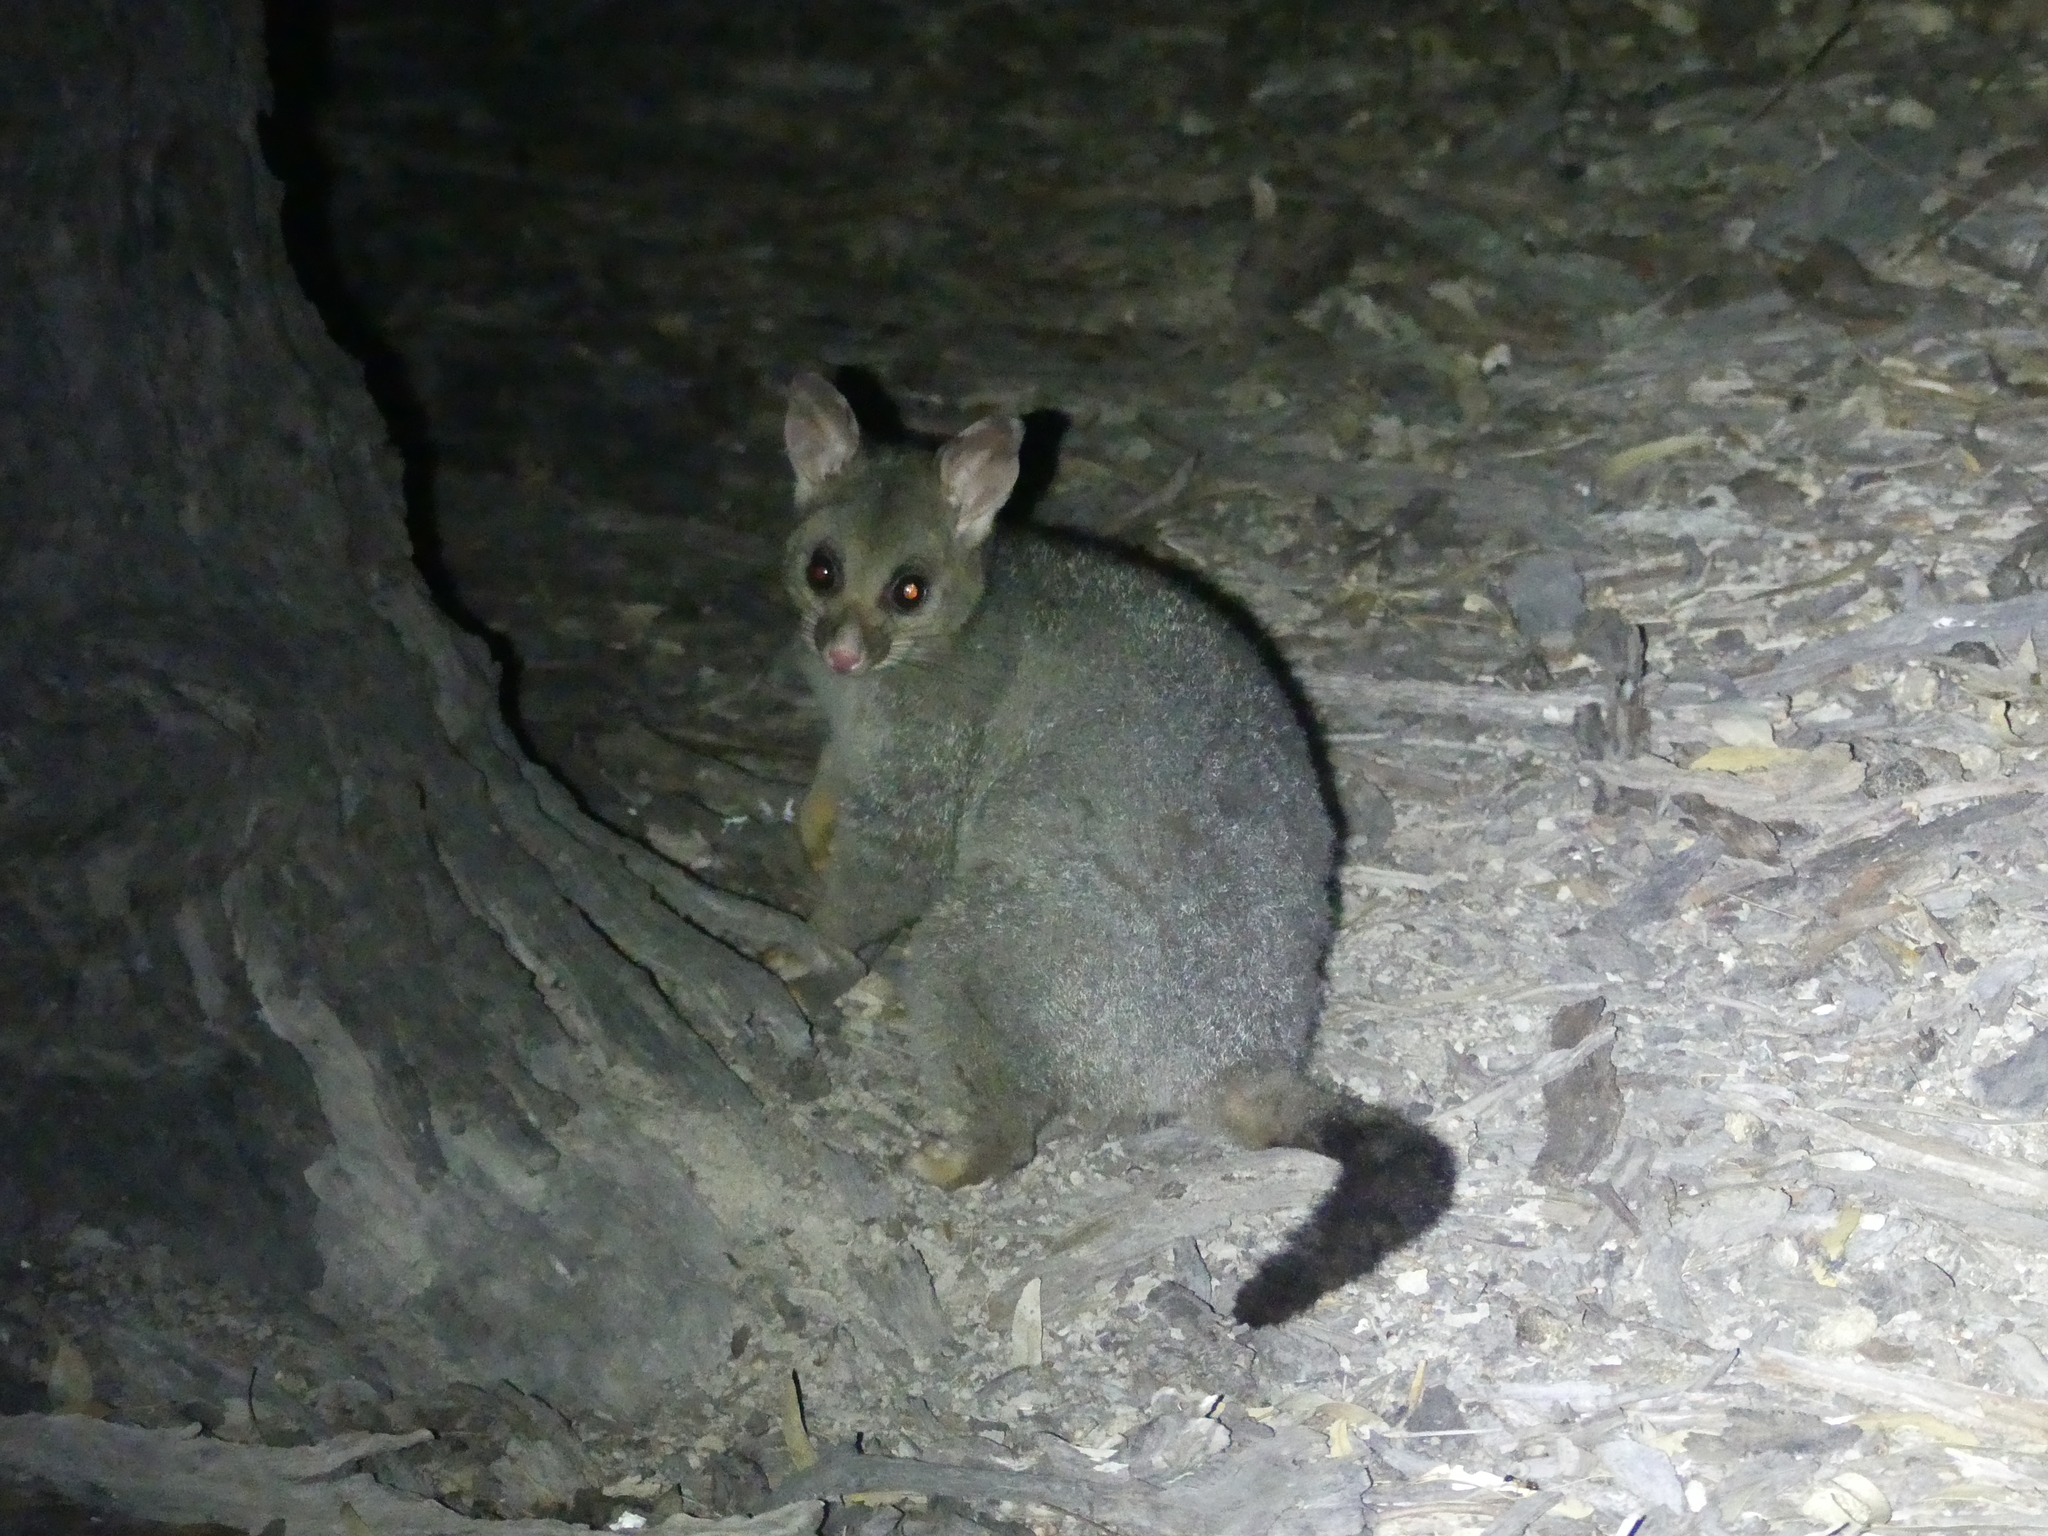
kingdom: Animalia
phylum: Chordata
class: Mammalia
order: Diprotodontia
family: Phalangeridae
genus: Trichosurus
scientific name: Trichosurus vulpecula
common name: Common brushtail
